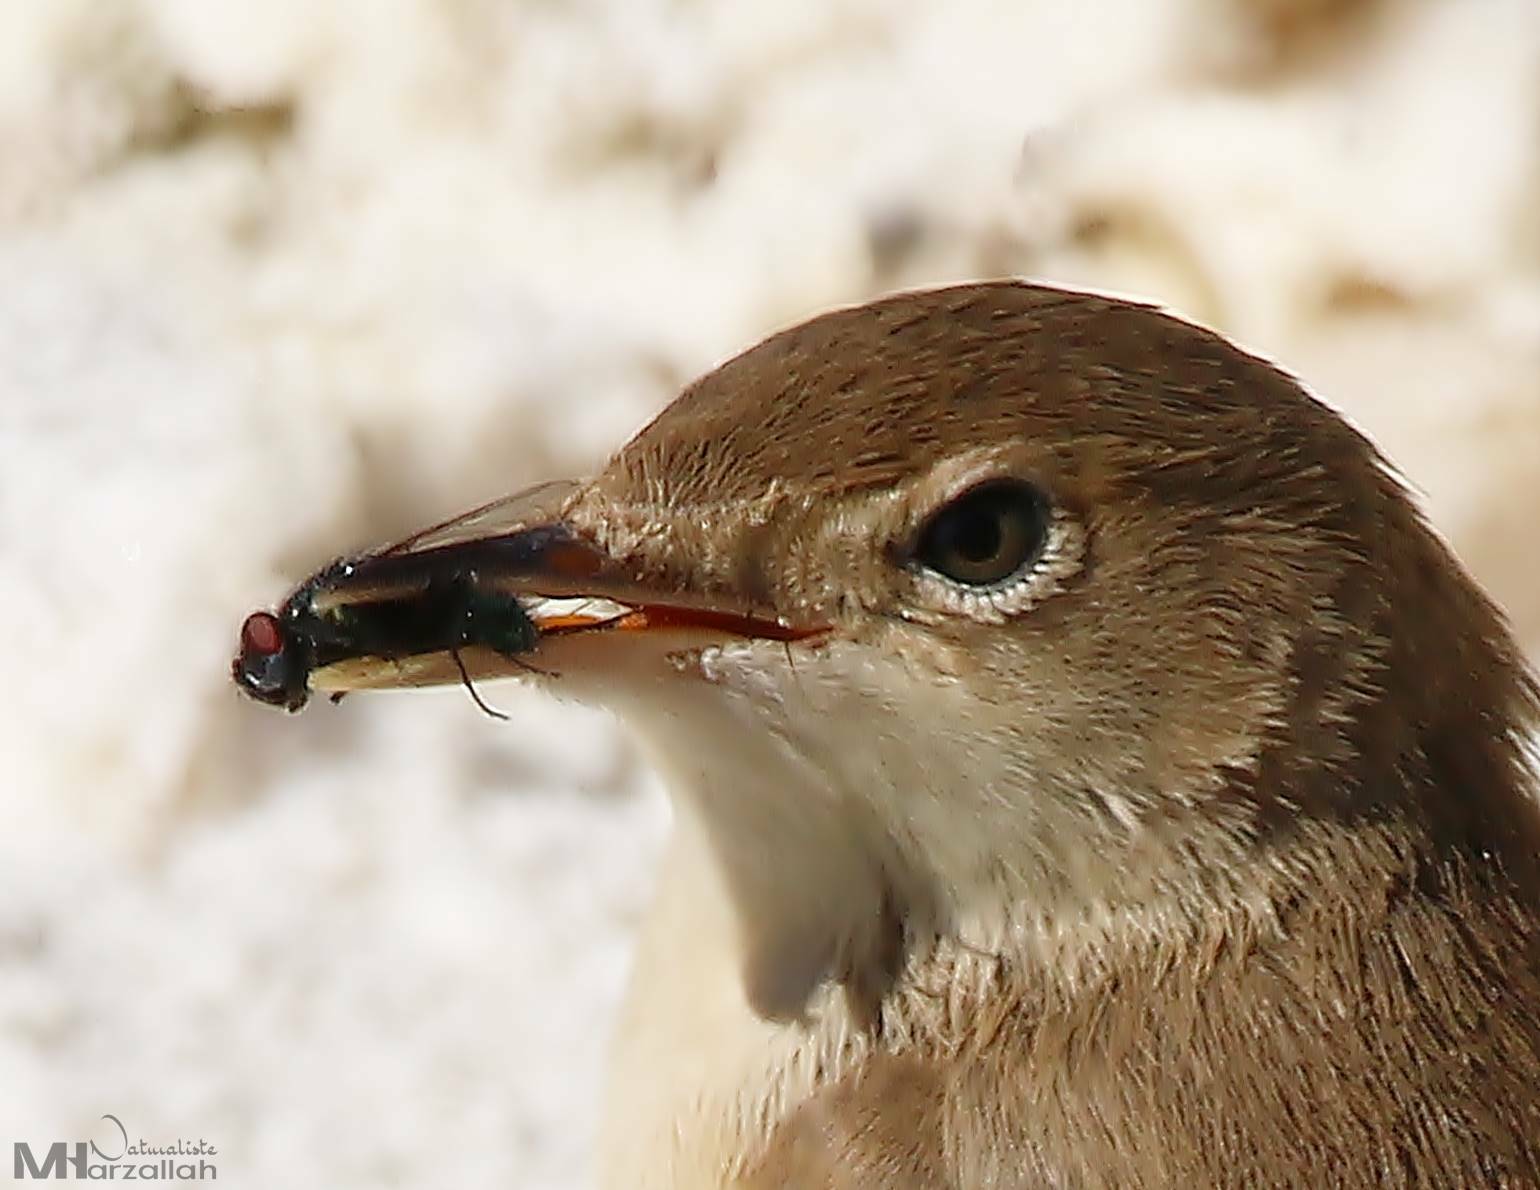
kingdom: Animalia
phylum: Chordata
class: Aves
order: Passeriformes
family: Acrocephalidae
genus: Acrocephalus
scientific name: Acrocephalus scirpaceus
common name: Eurasian reed warbler
